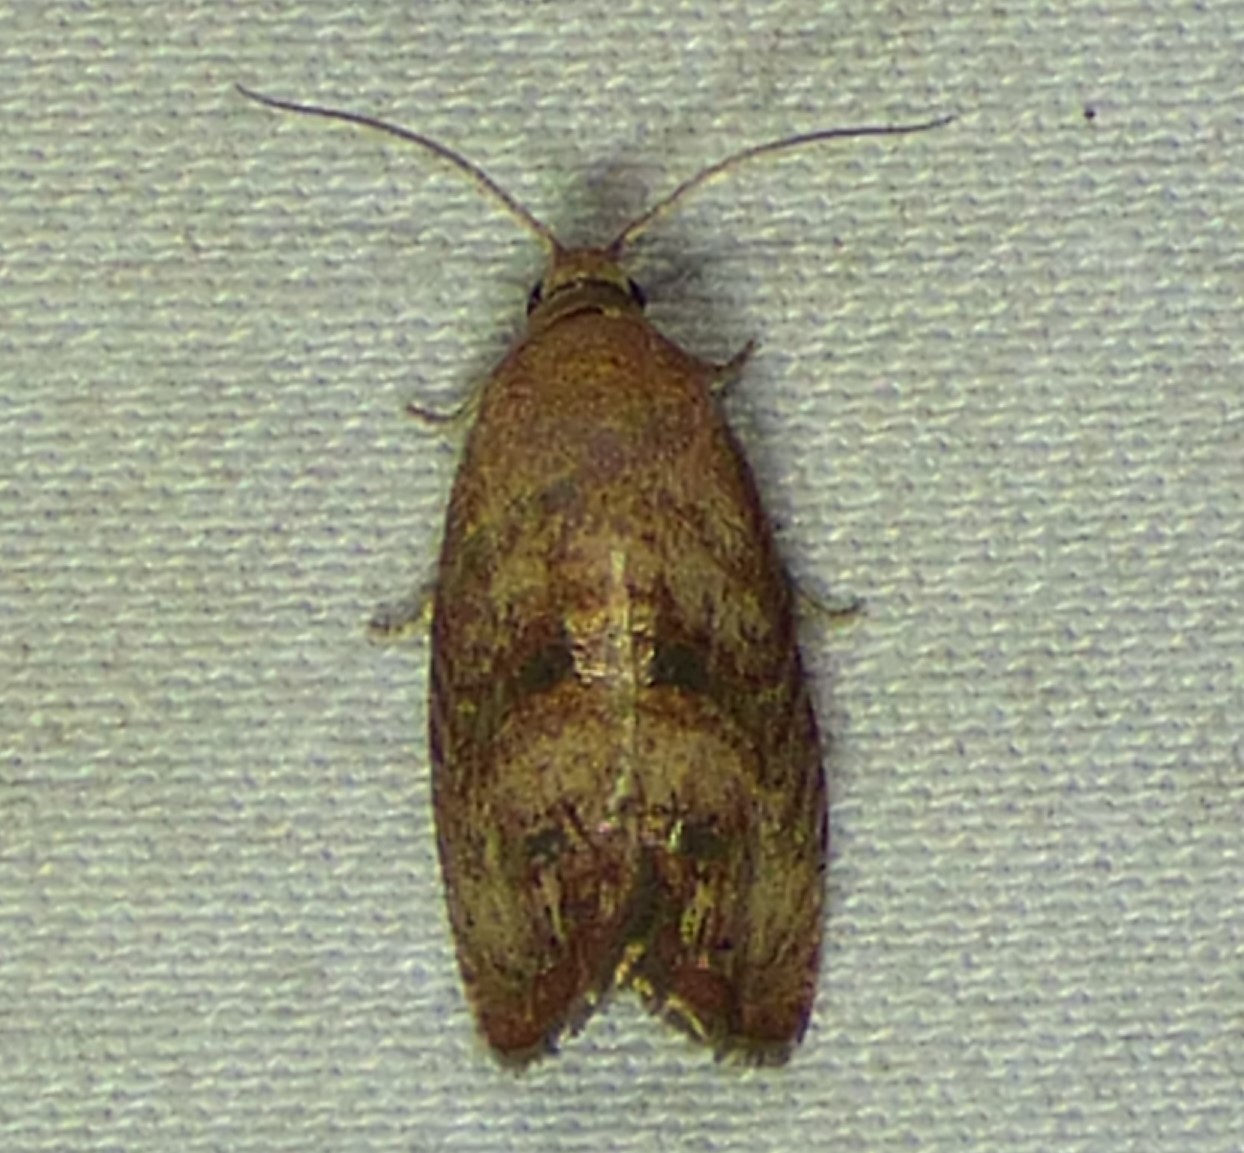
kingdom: Animalia
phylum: Arthropoda
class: Insecta
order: Lepidoptera
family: Tortricidae
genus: Cydia
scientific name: Cydia latiferreana
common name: Filbertworm moth
